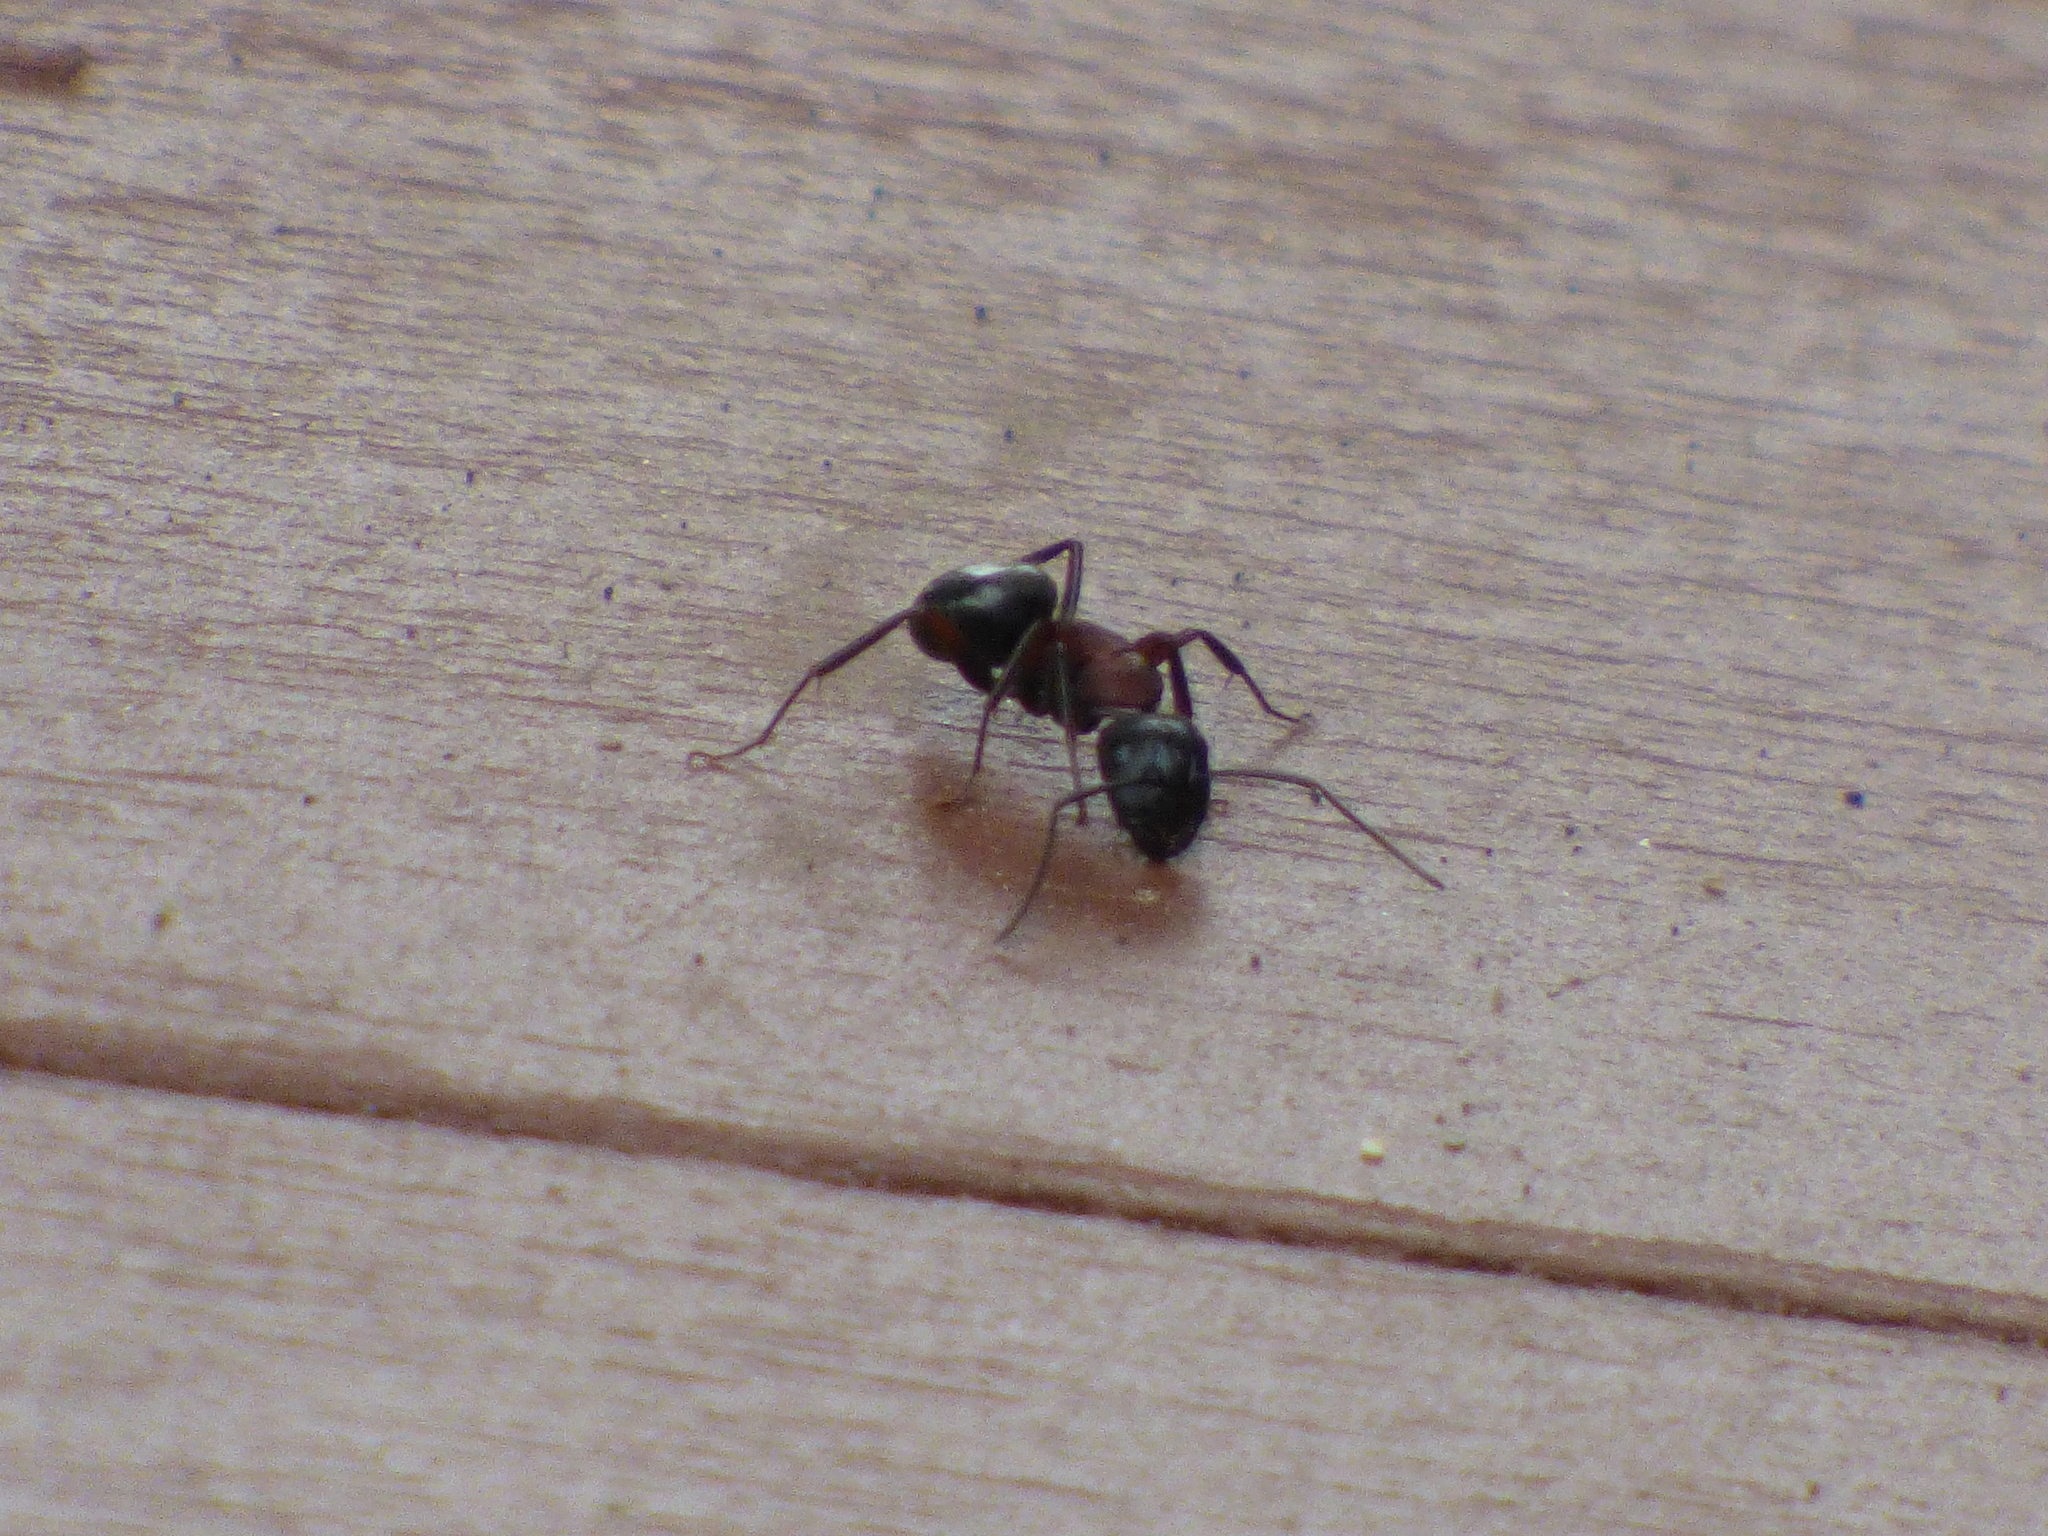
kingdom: Animalia
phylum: Arthropoda
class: Insecta
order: Hymenoptera
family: Formicidae
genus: Camponotus
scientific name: Camponotus novaeboracensis
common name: New york carpenter ant
